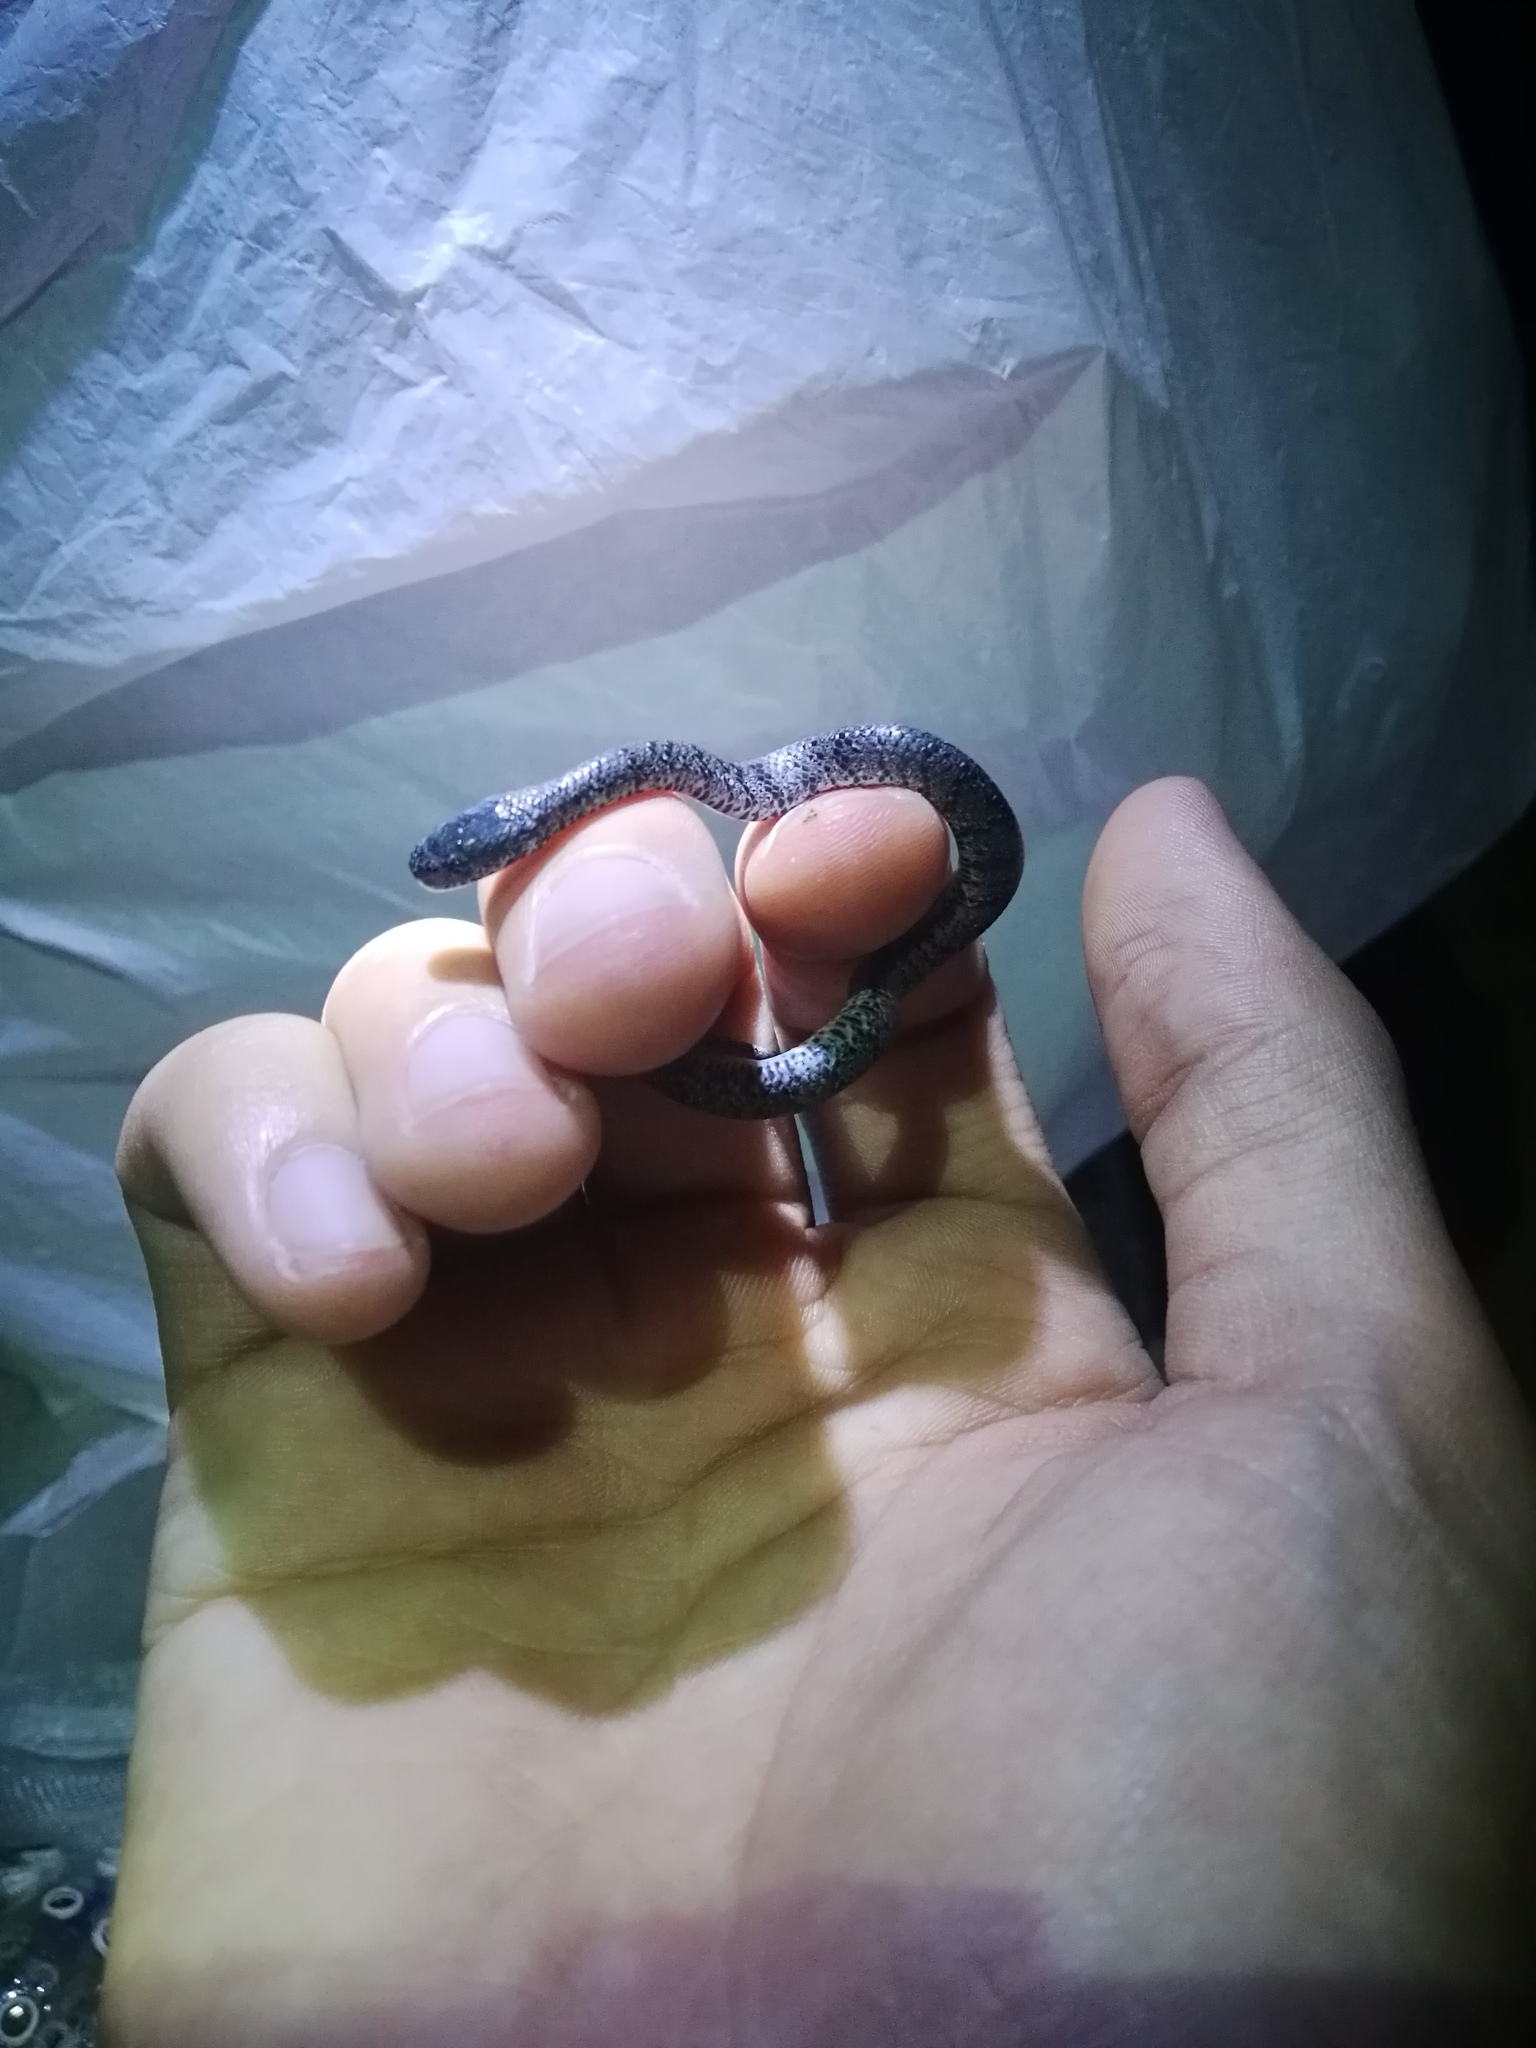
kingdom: Animalia
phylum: Chordata
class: Squamata
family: Pareidae
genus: Pareas
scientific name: Pareas margaritophorus
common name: Mountain slug snake
